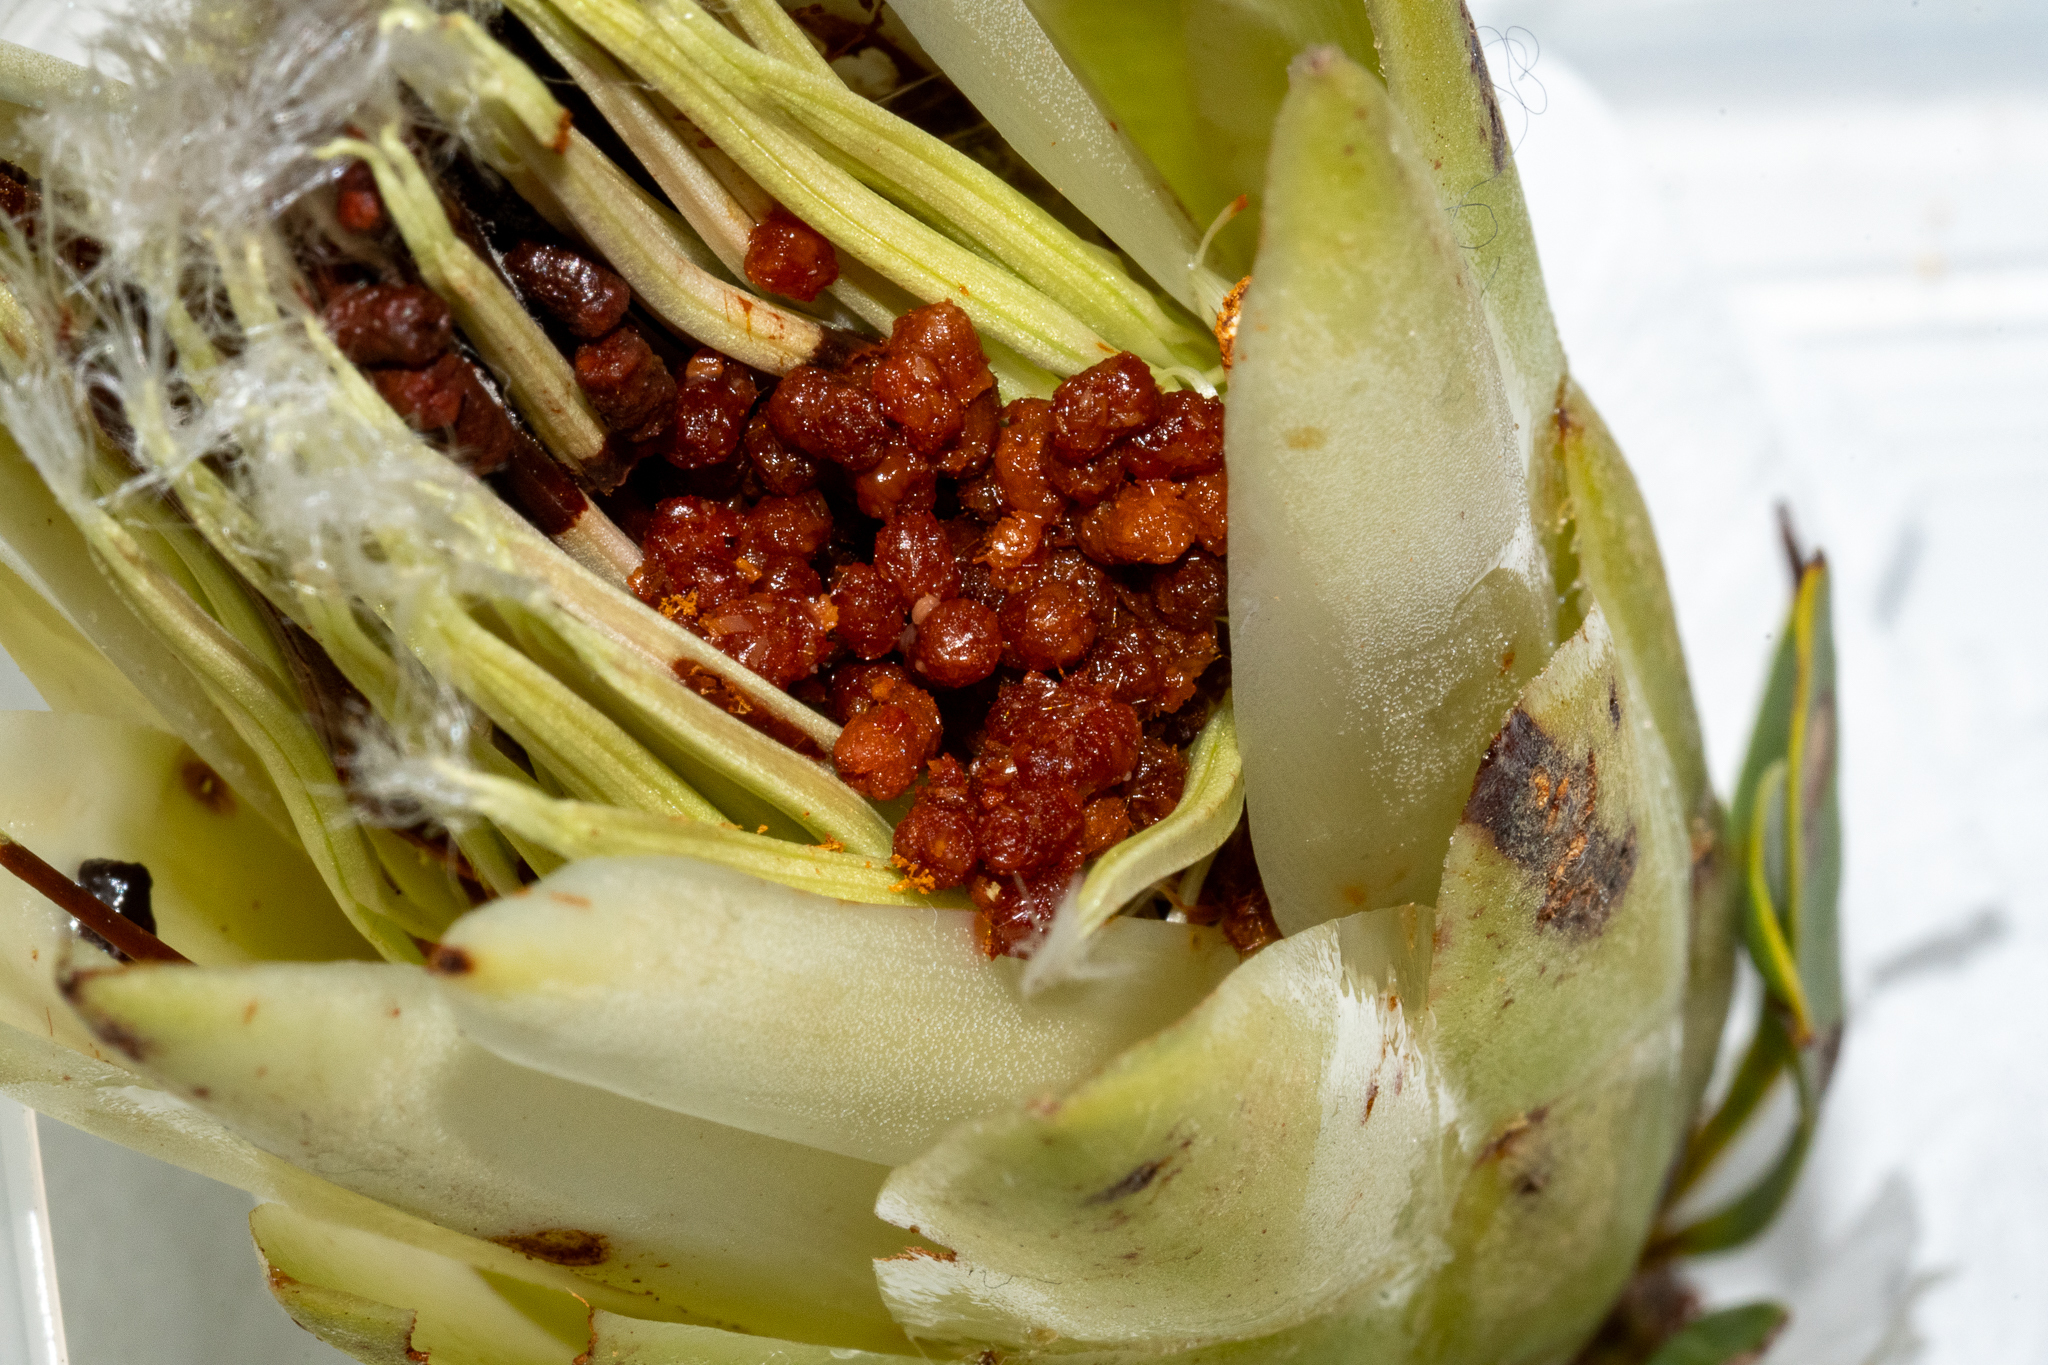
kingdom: Animalia
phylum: Arthropoda
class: Insecta
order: Lepidoptera
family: Lycaenidae
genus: Capys
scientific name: Capys alpheus
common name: Orange-banded protea butterfly
